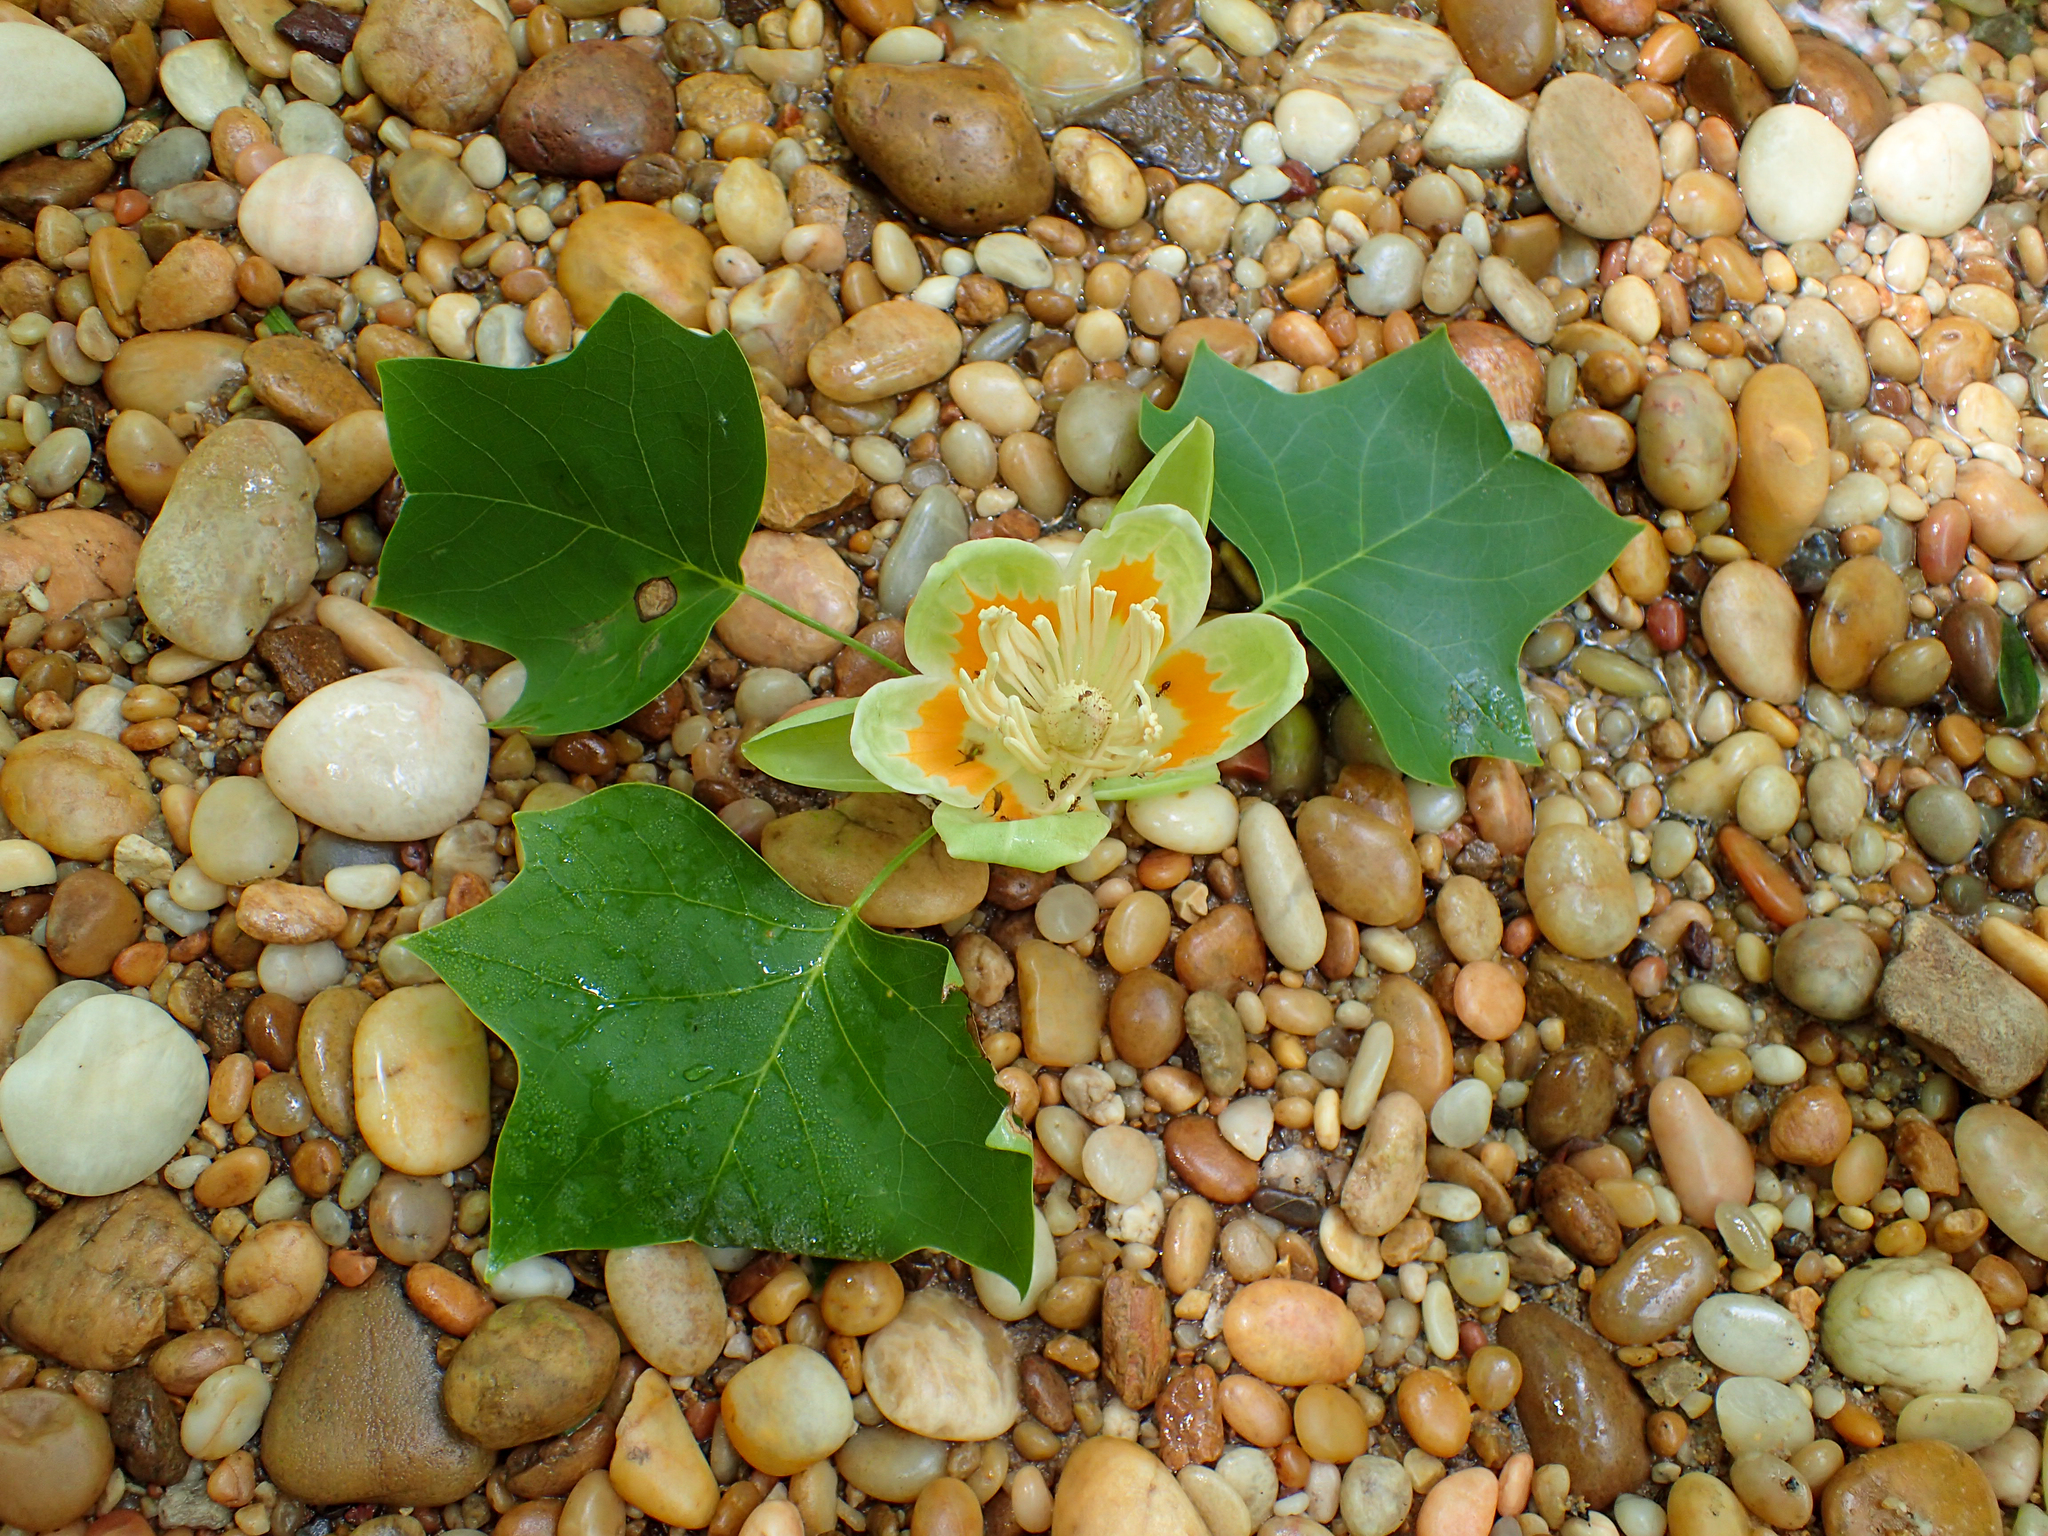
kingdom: Plantae
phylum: Tracheophyta
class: Magnoliopsida
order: Magnoliales
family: Magnoliaceae
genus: Liriodendron
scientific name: Liriodendron tulipifera
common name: Tulip tree
